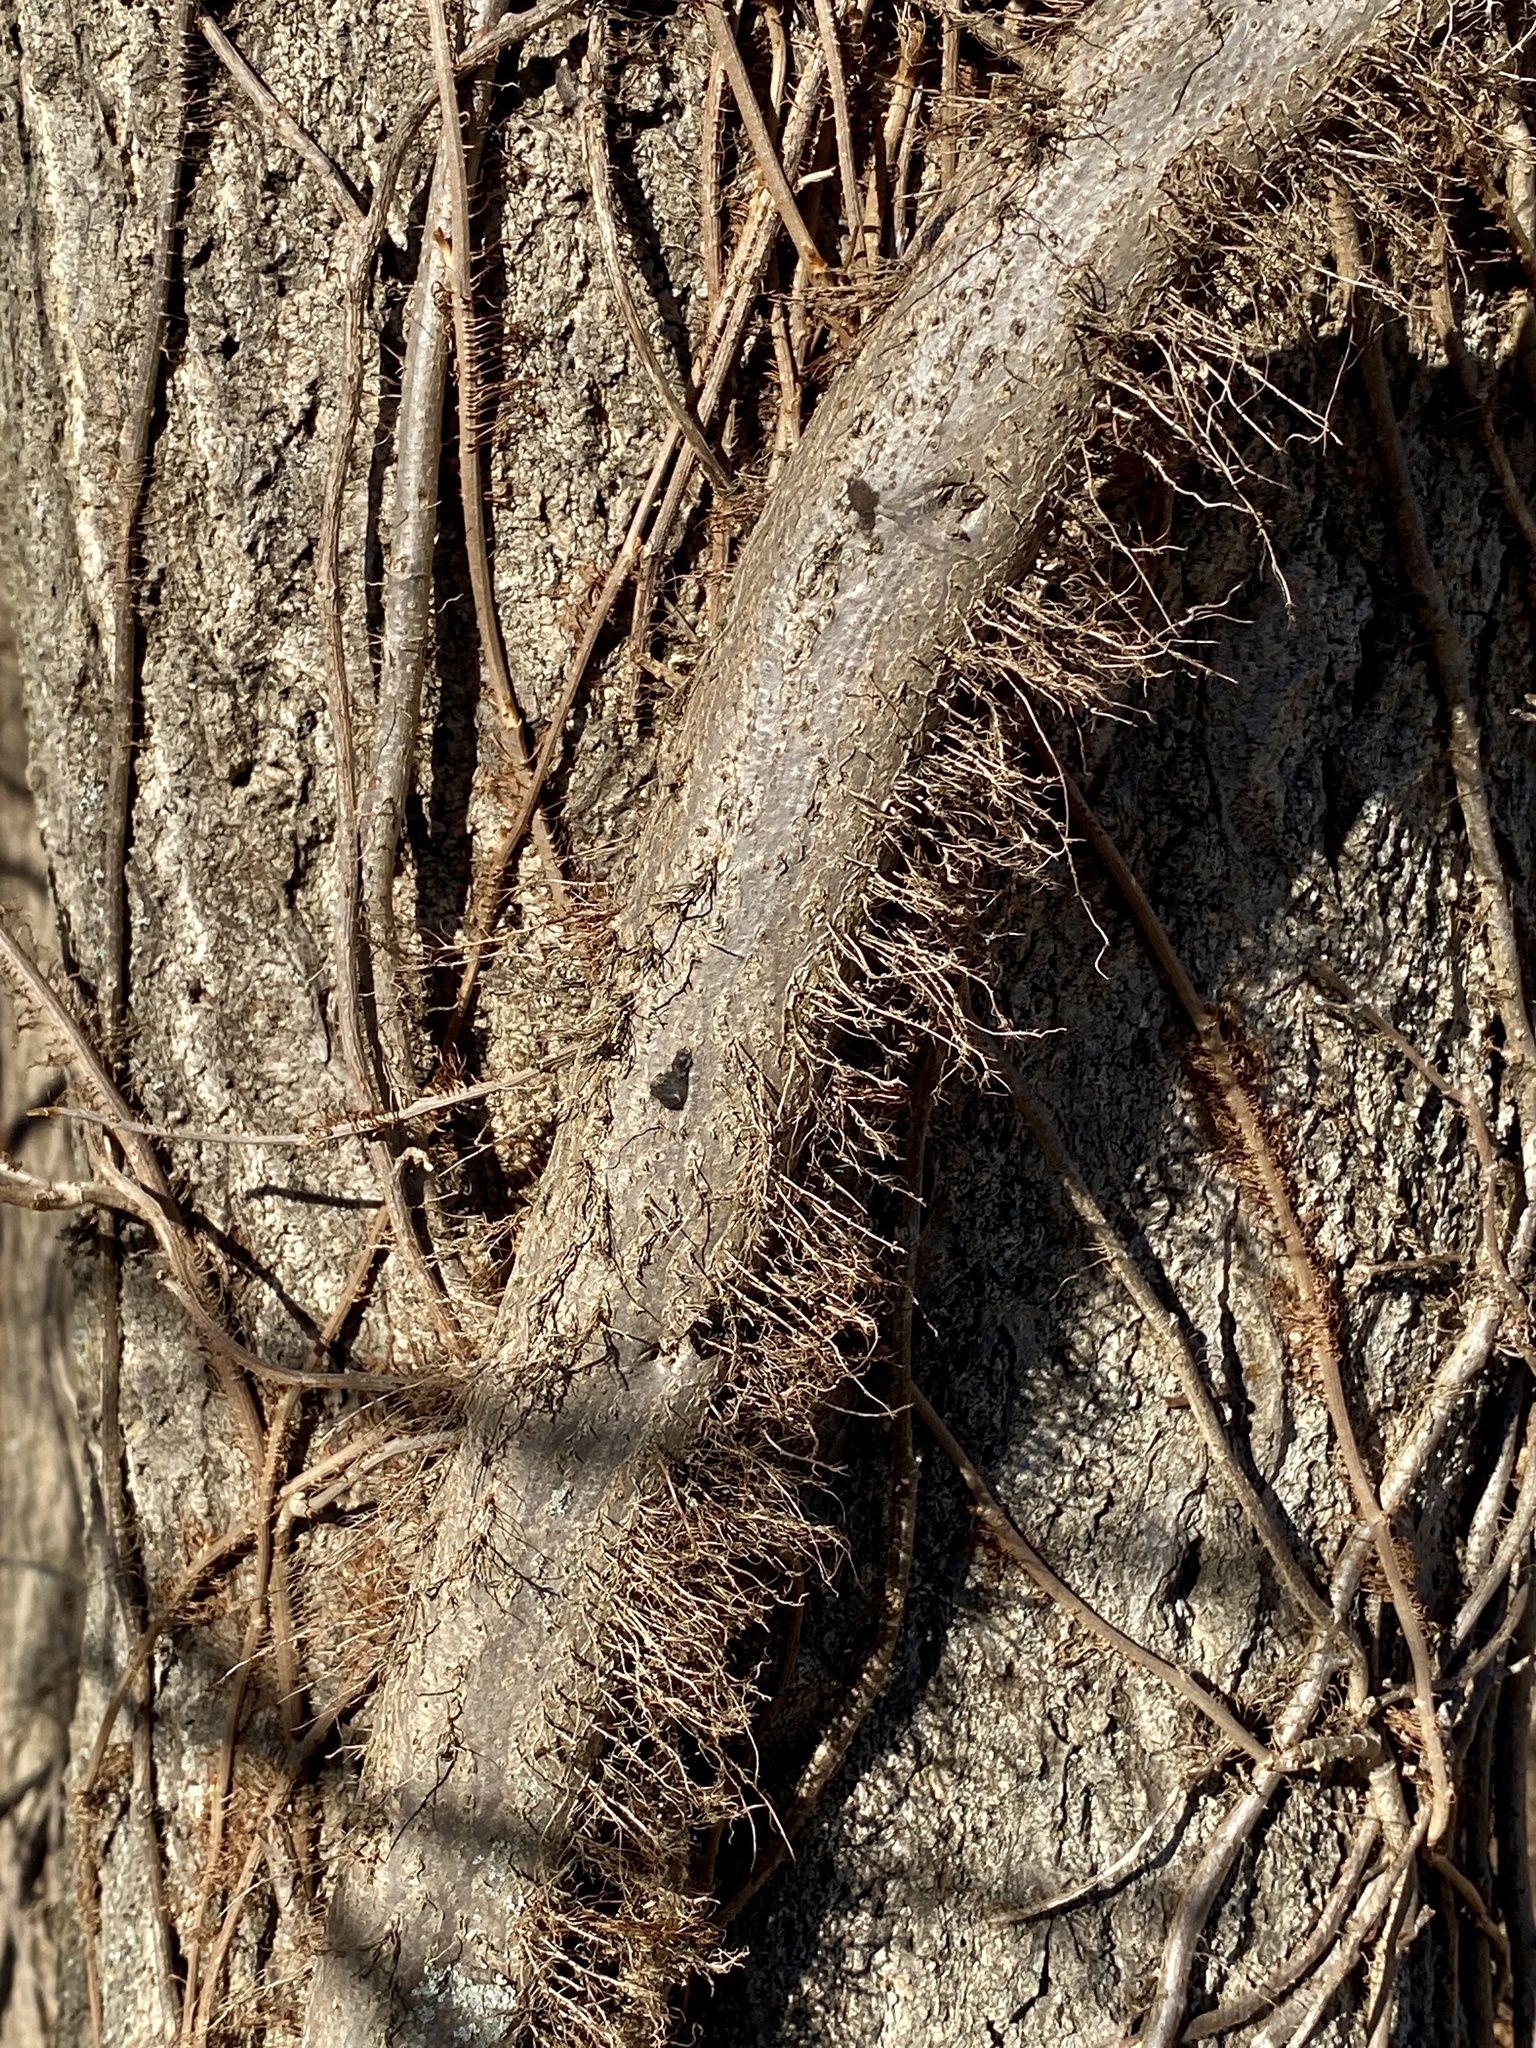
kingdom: Plantae
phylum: Tracheophyta
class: Magnoliopsida
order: Sapindales
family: Anacardiaceae
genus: Toxicodendron
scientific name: Toxicodendron radicans
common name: Poison ivy
